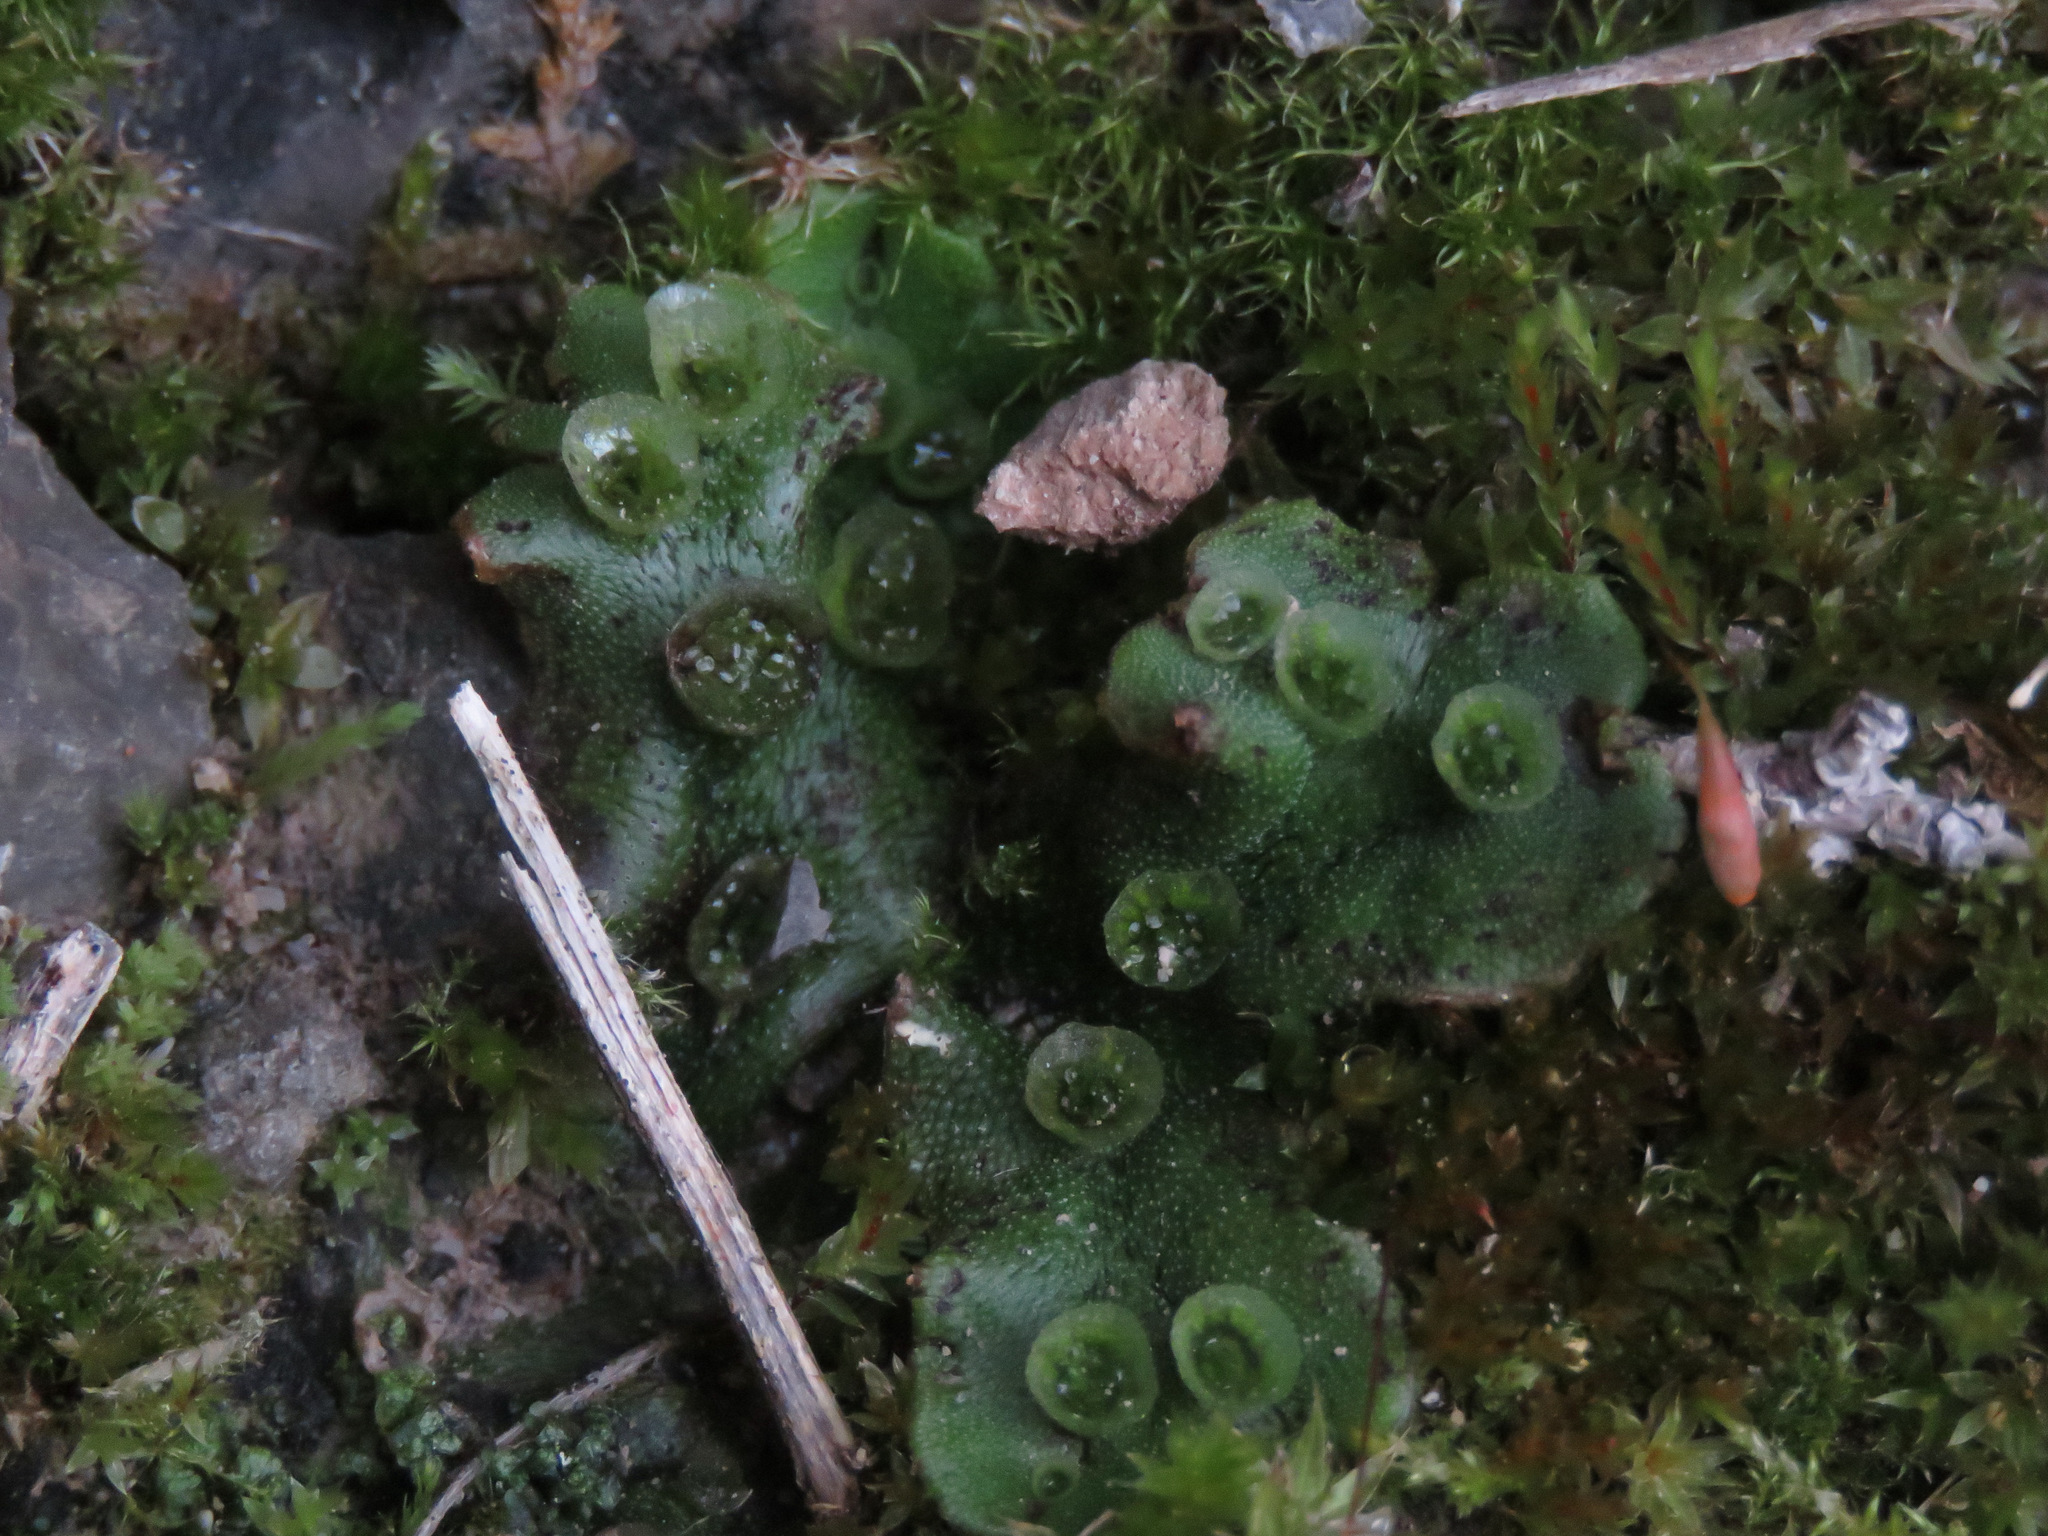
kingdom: Plantae
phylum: Marchantiophyta
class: Marchantiopsida
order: Marchantiales
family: Marchantiaceae
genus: Marchantia
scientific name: Marchantia polymorpha
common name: Common liverwort
